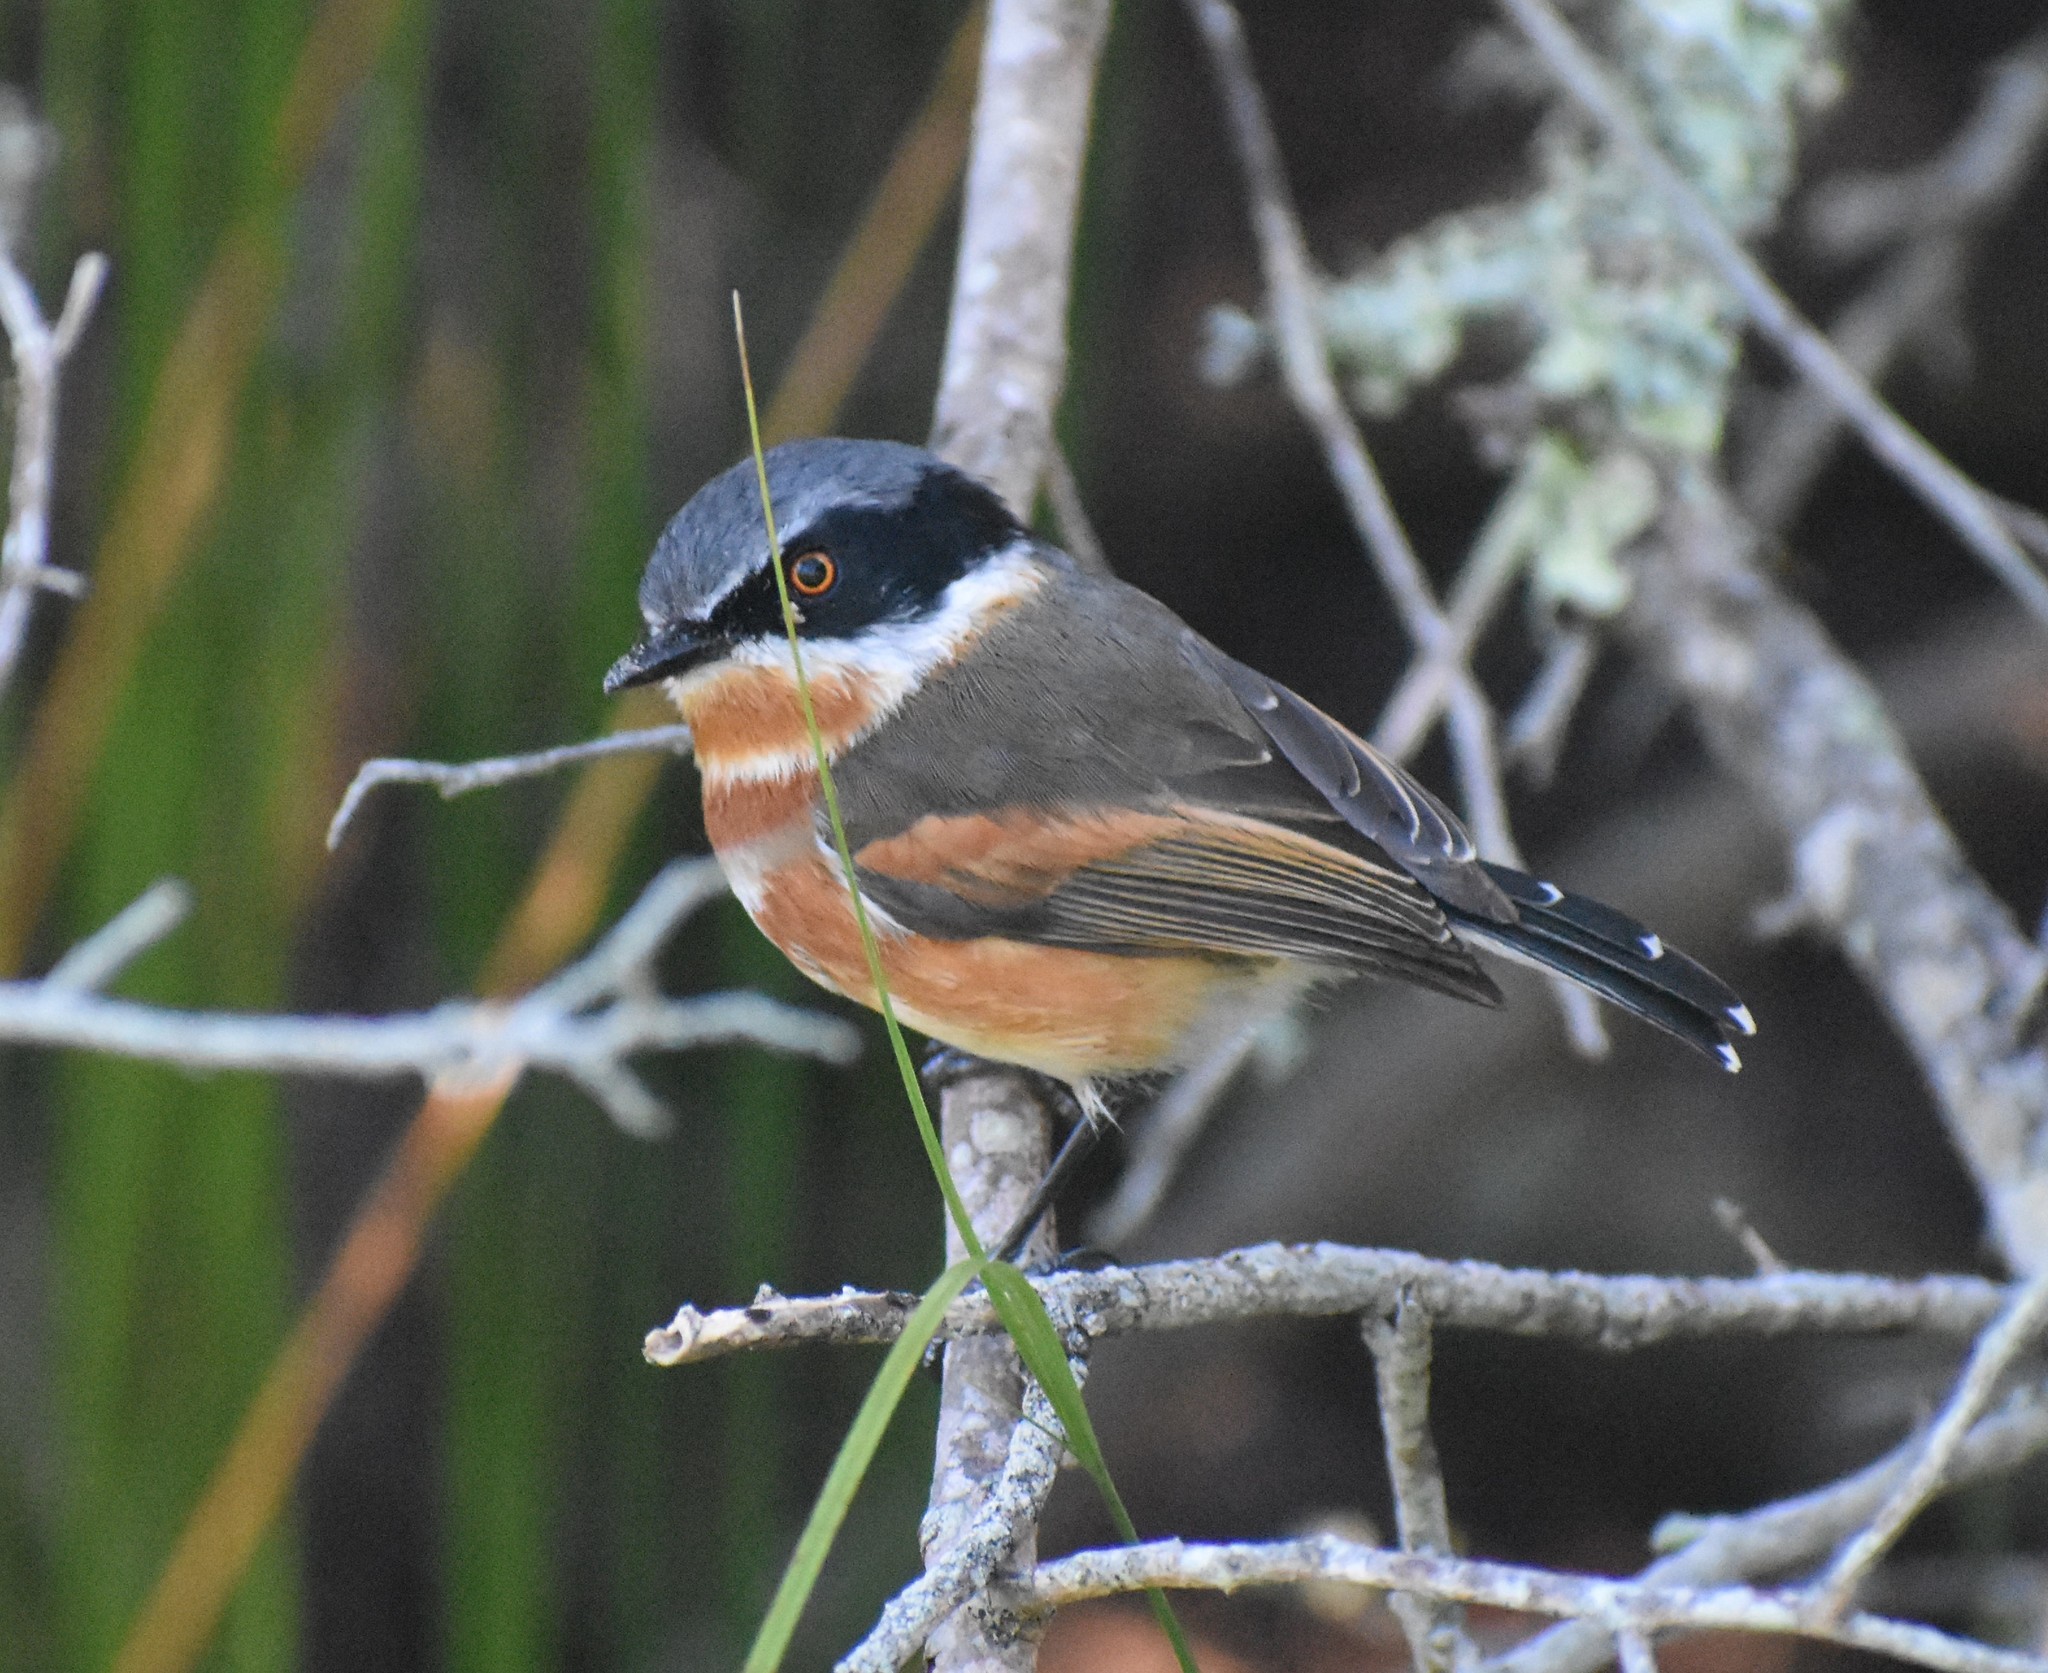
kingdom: Animalia
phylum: Chordata
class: Aves
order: Passeriformes
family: Platysteiridae
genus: Batis
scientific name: Batis capensis
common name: Cape batis
